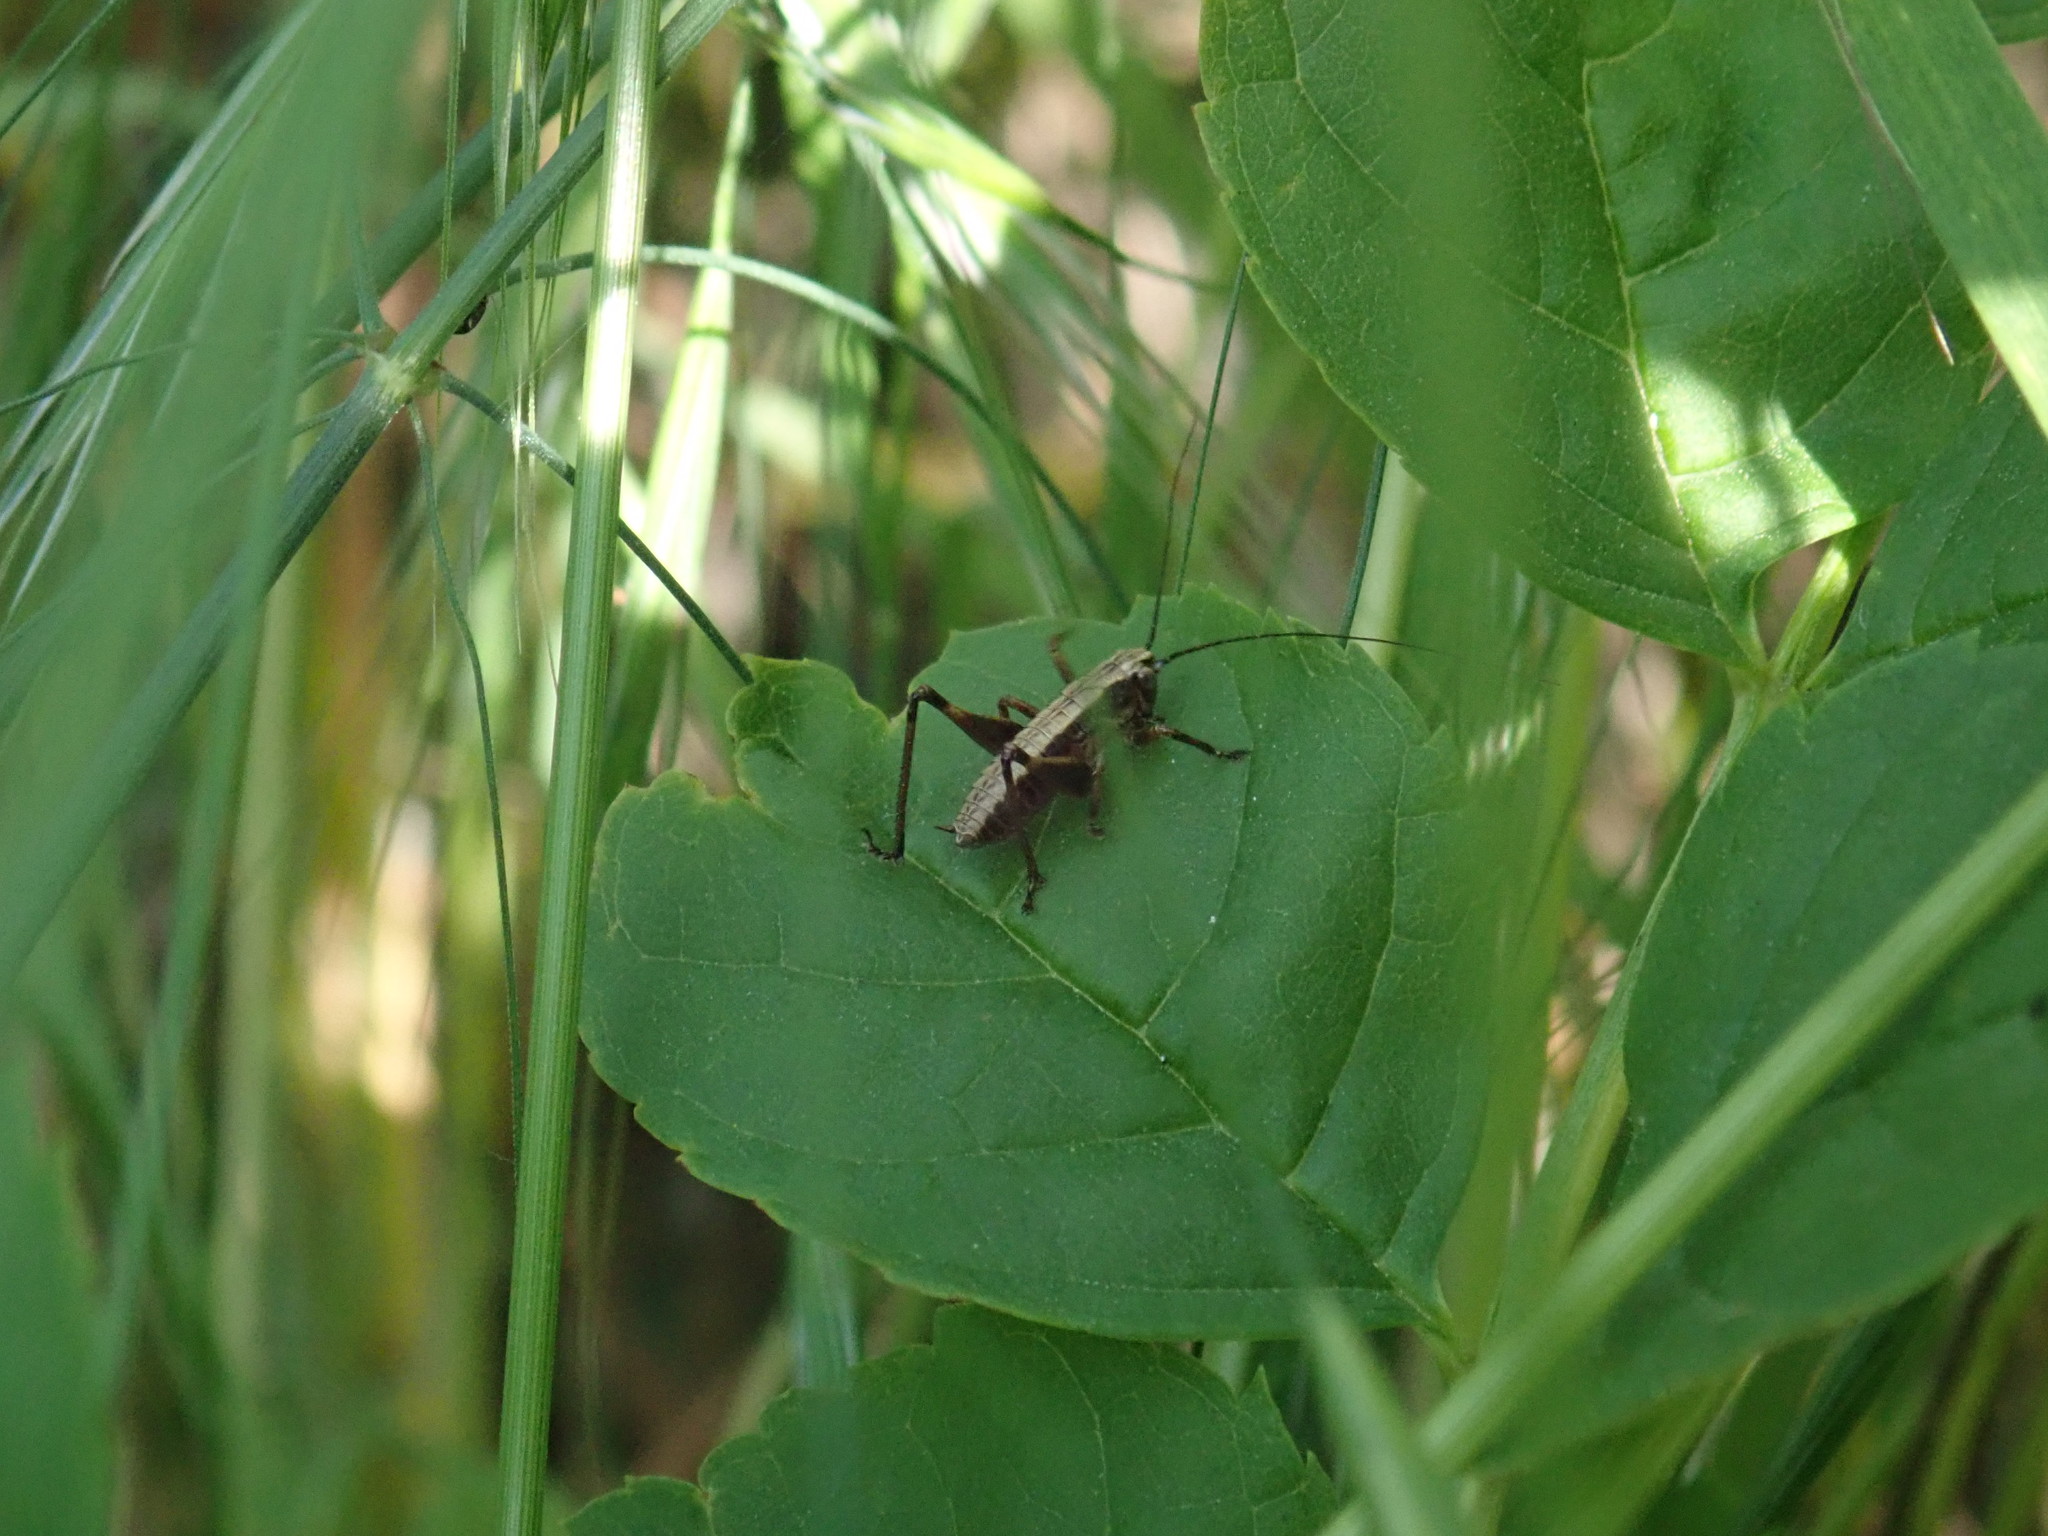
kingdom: Animalia
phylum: Arthropoda
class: Insecta
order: Orthoptera
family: Tettigoniidae
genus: Pholidoptera
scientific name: Pholidoptera griseoaptera
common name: Dark bush-cricket
